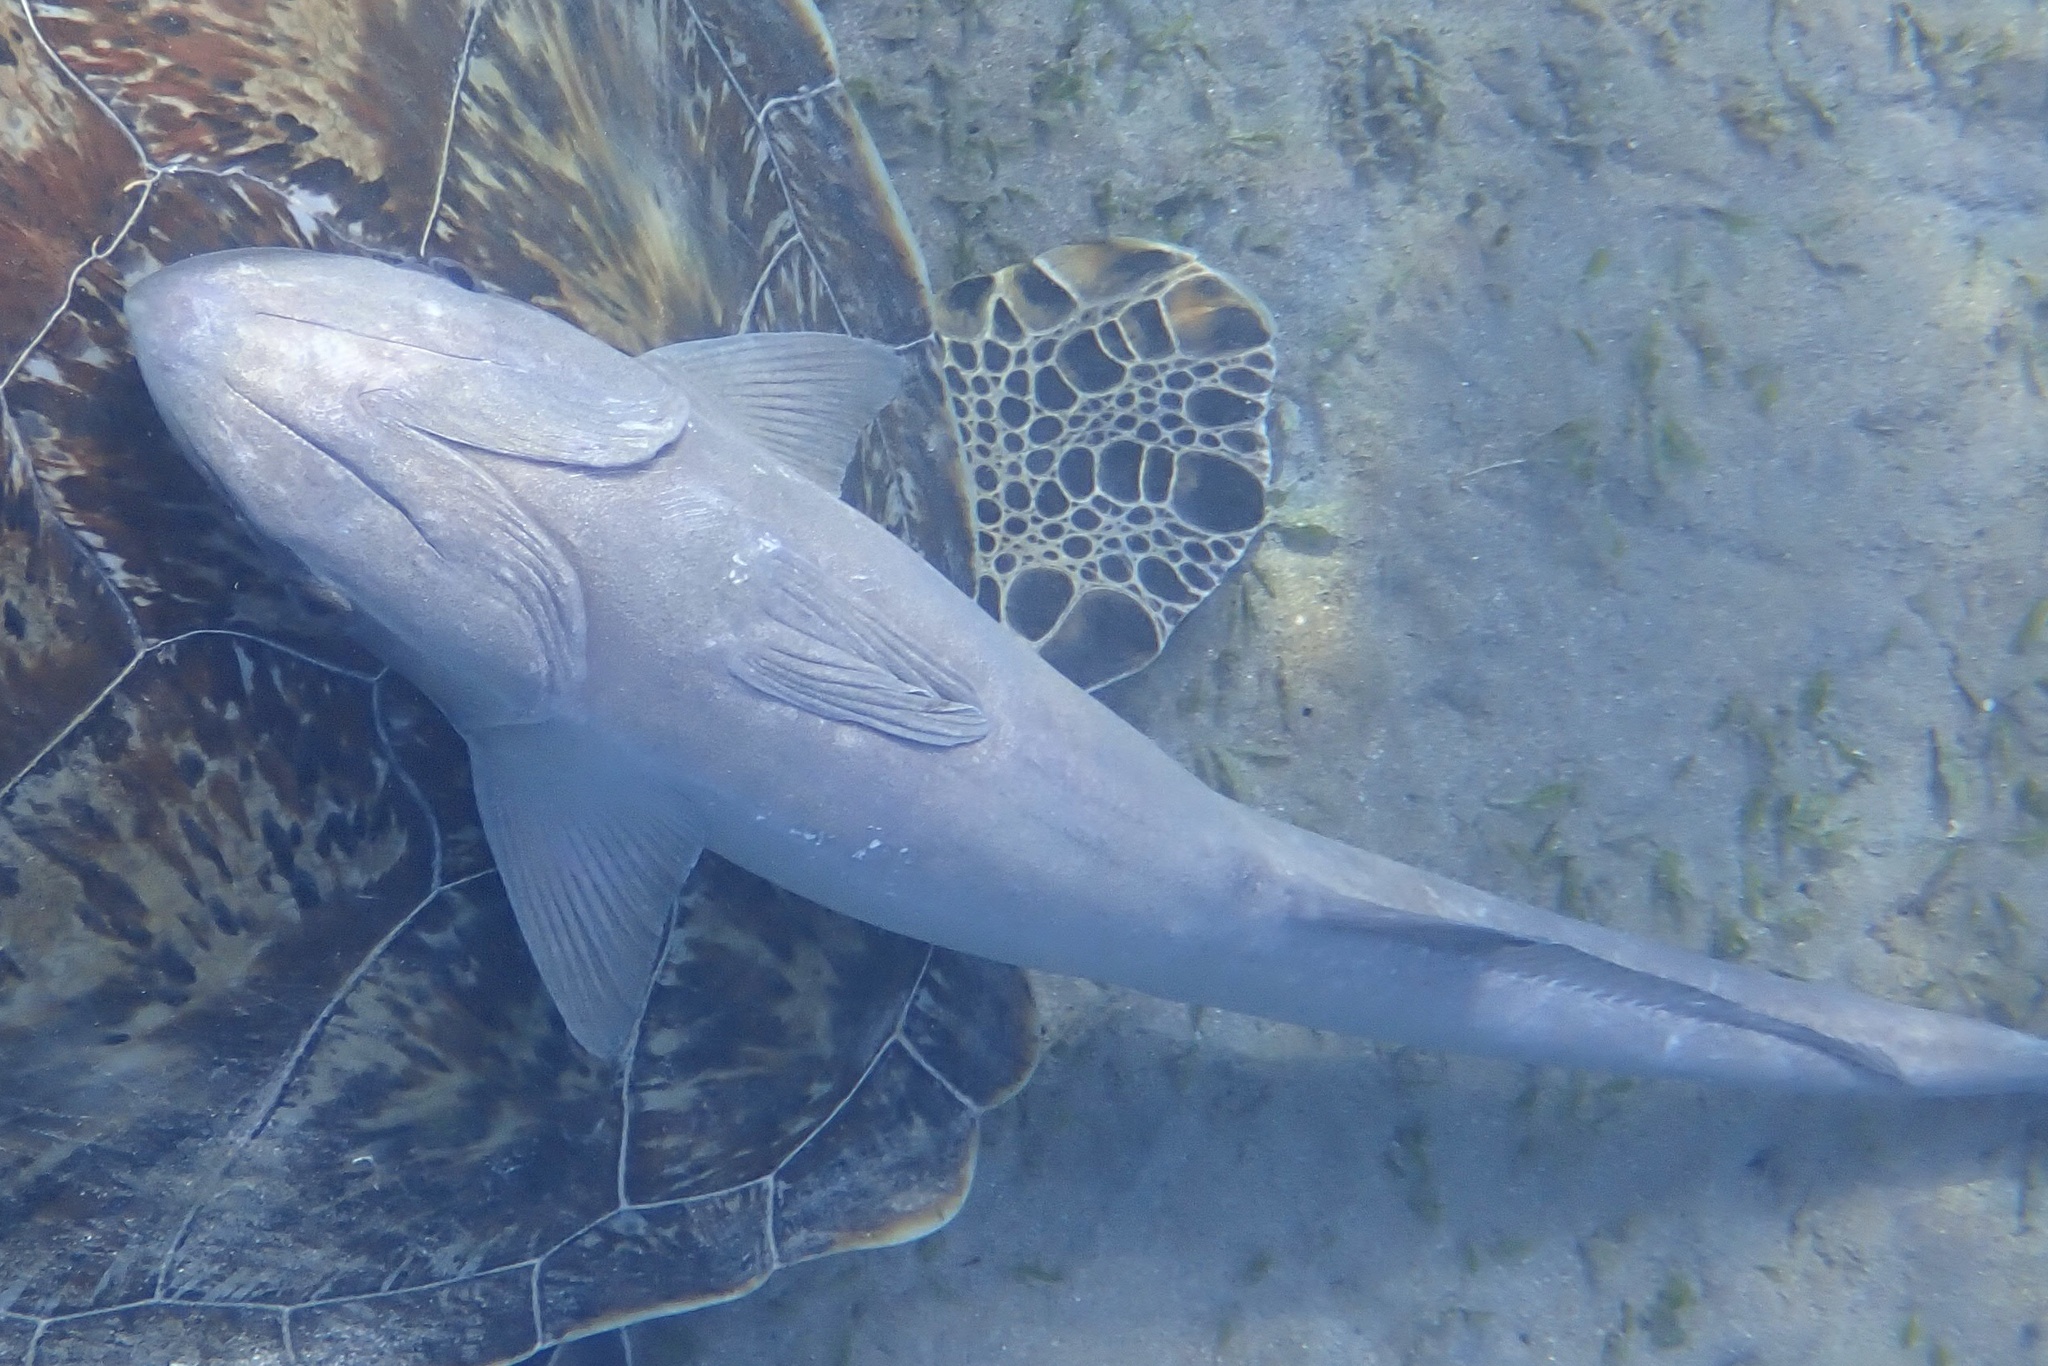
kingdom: Animalia
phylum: Chordata
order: Perciformes
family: Echeneidae
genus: Echeneis
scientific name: Echeneis naucrates
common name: Sharksucker
